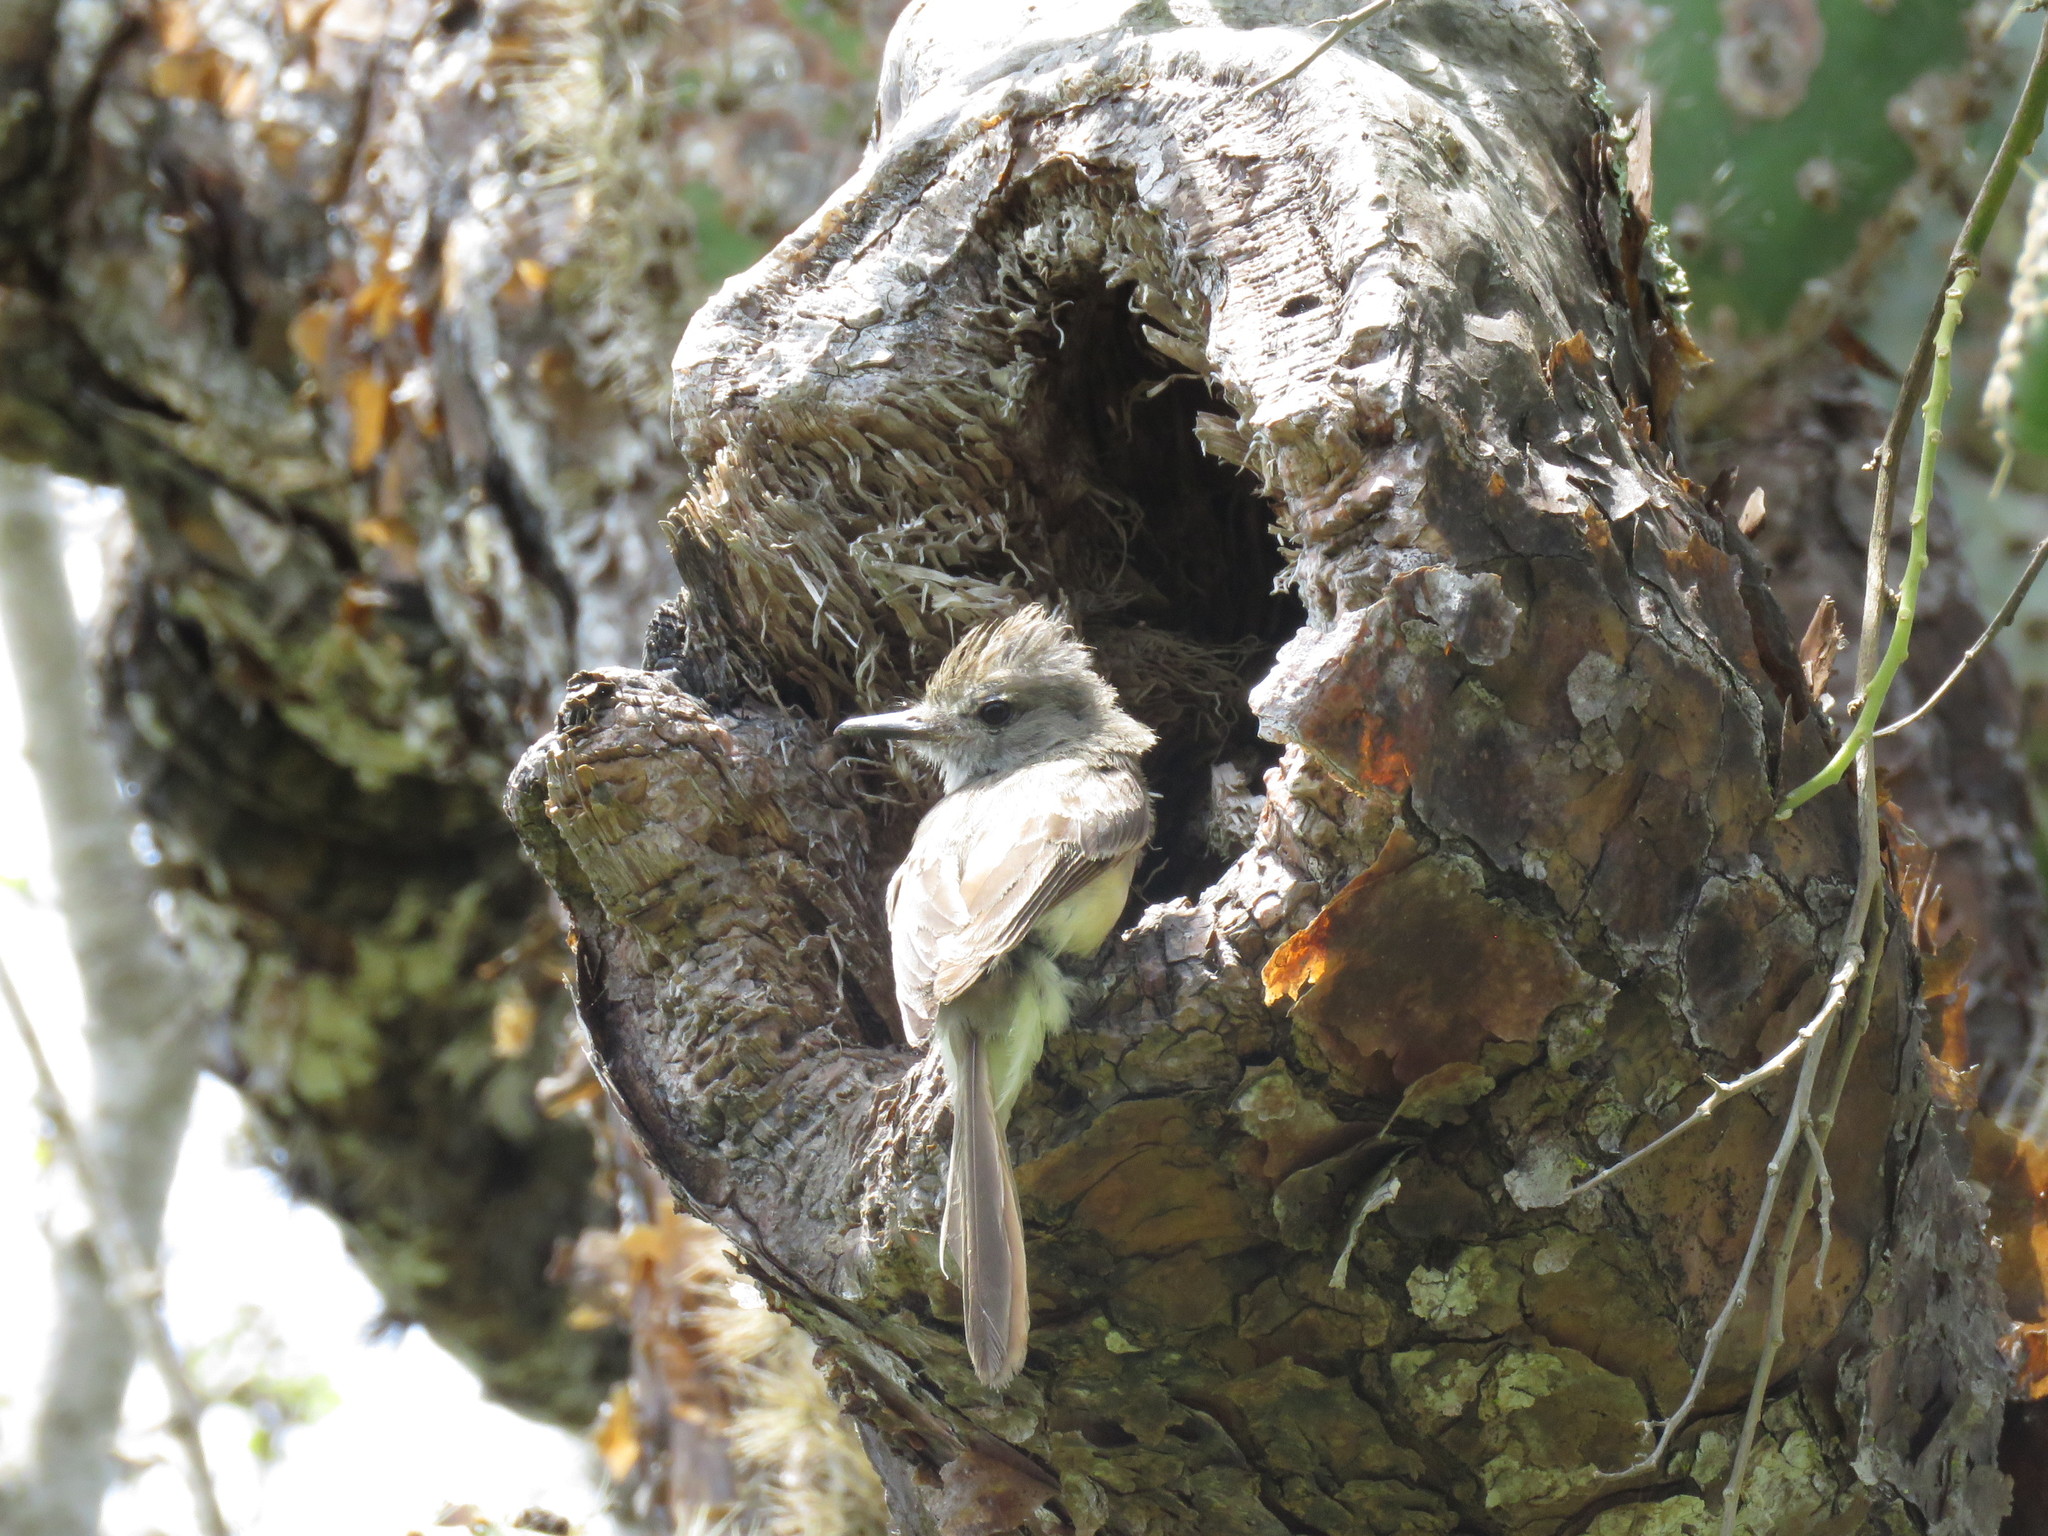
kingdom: Animalia
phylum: Chordata
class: Aves
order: Passeriformes
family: Tyrannidae
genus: Myiarchus
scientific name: Myiarchus magnirostris
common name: Galapagos flycatcher
